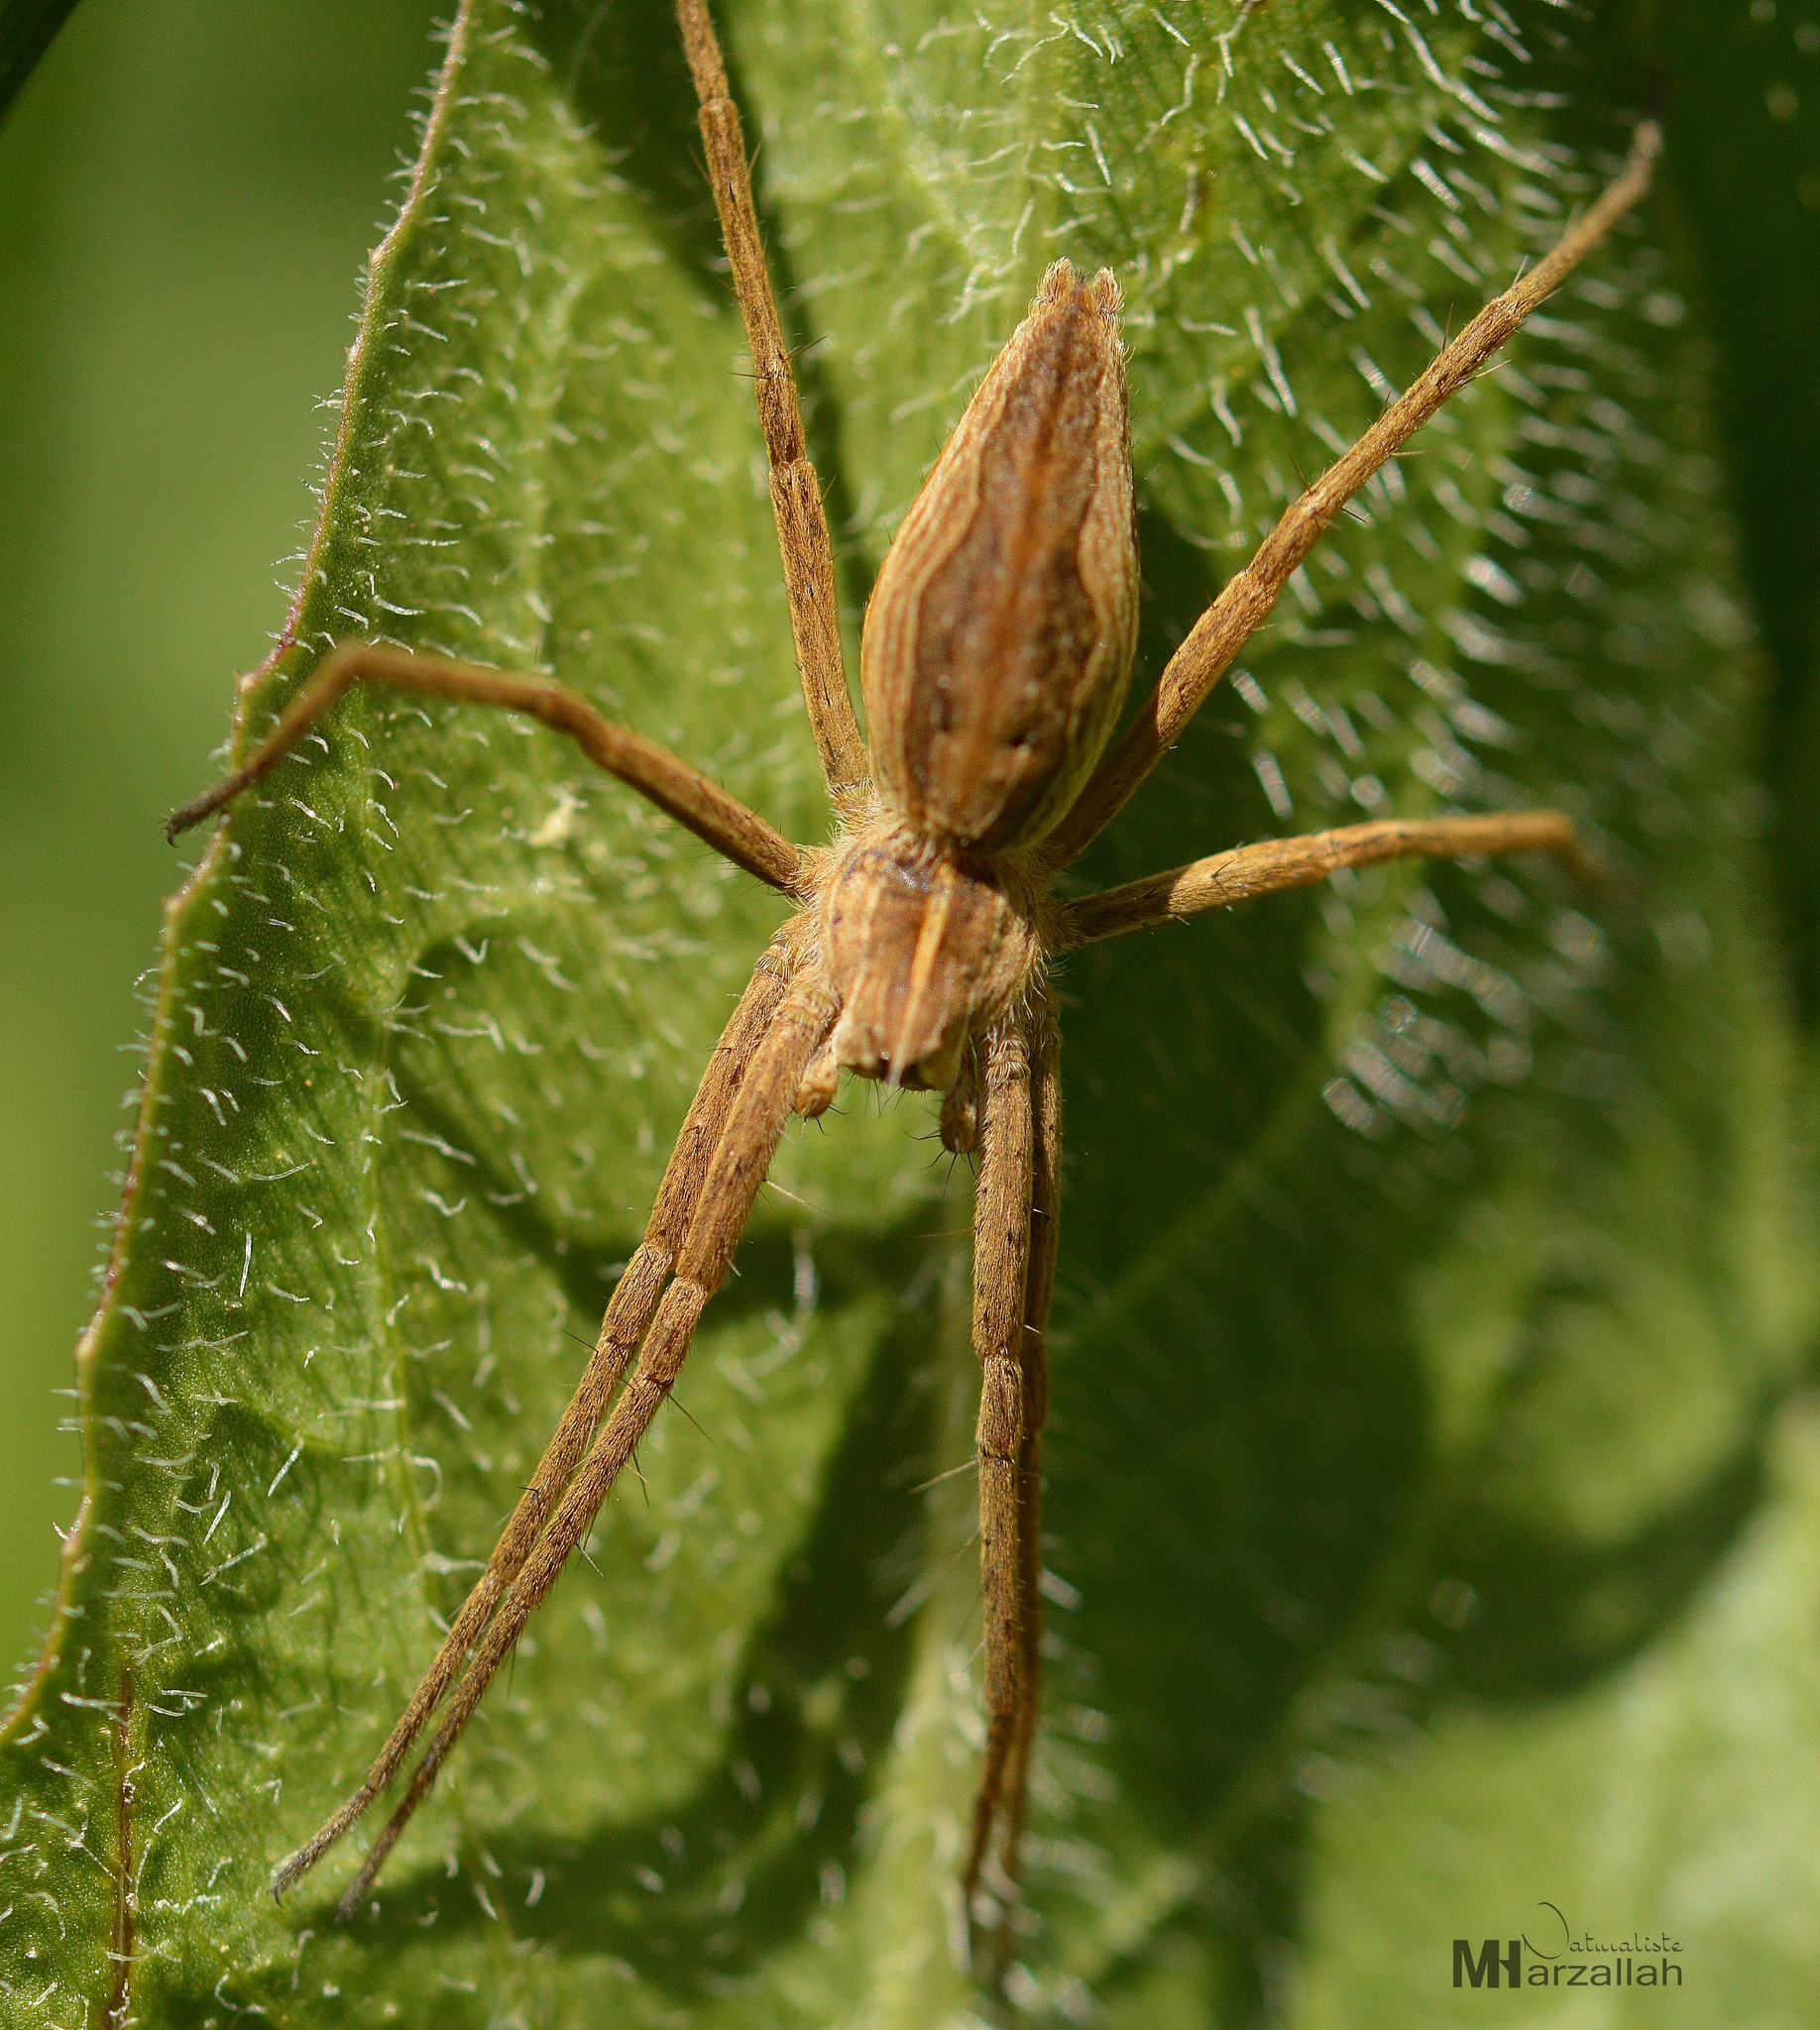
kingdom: Animalia
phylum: Arthropoda
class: Arachnida
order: Araneae
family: Pisauridae
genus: Pisaura
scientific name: Pisaura mirabilis
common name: Tent spider
